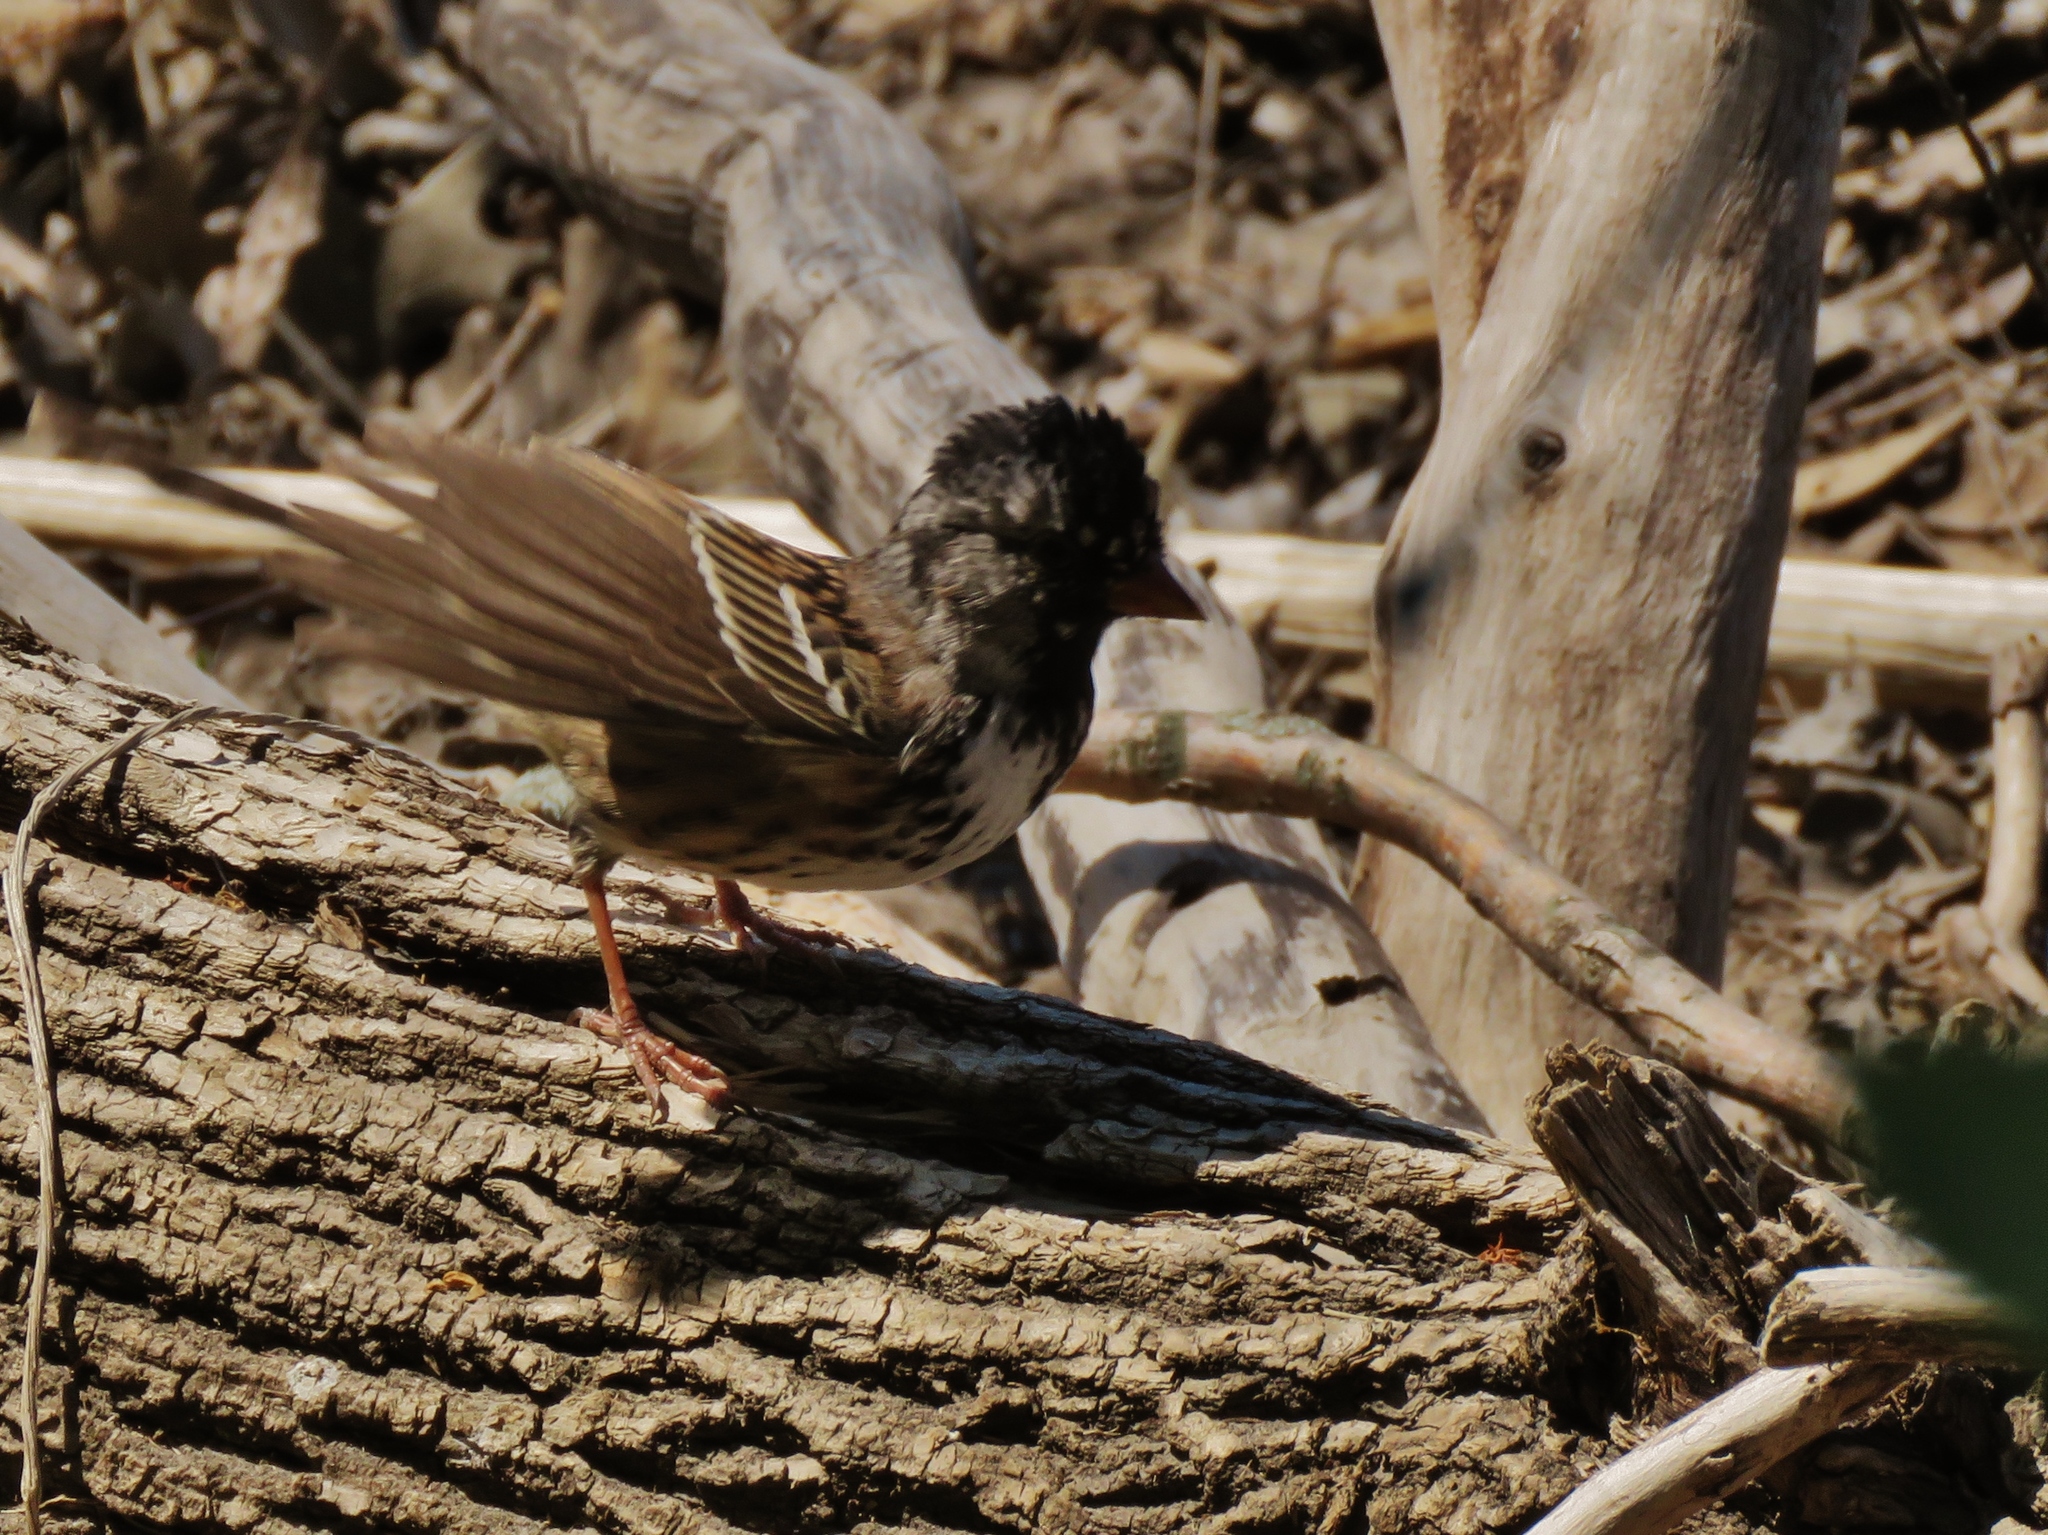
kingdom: Animalia
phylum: Chordata
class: Aves
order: Passeriformes
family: Passerellidae
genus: Zonotrichia
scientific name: Zonotrichia querula
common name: Harris's sparrow
